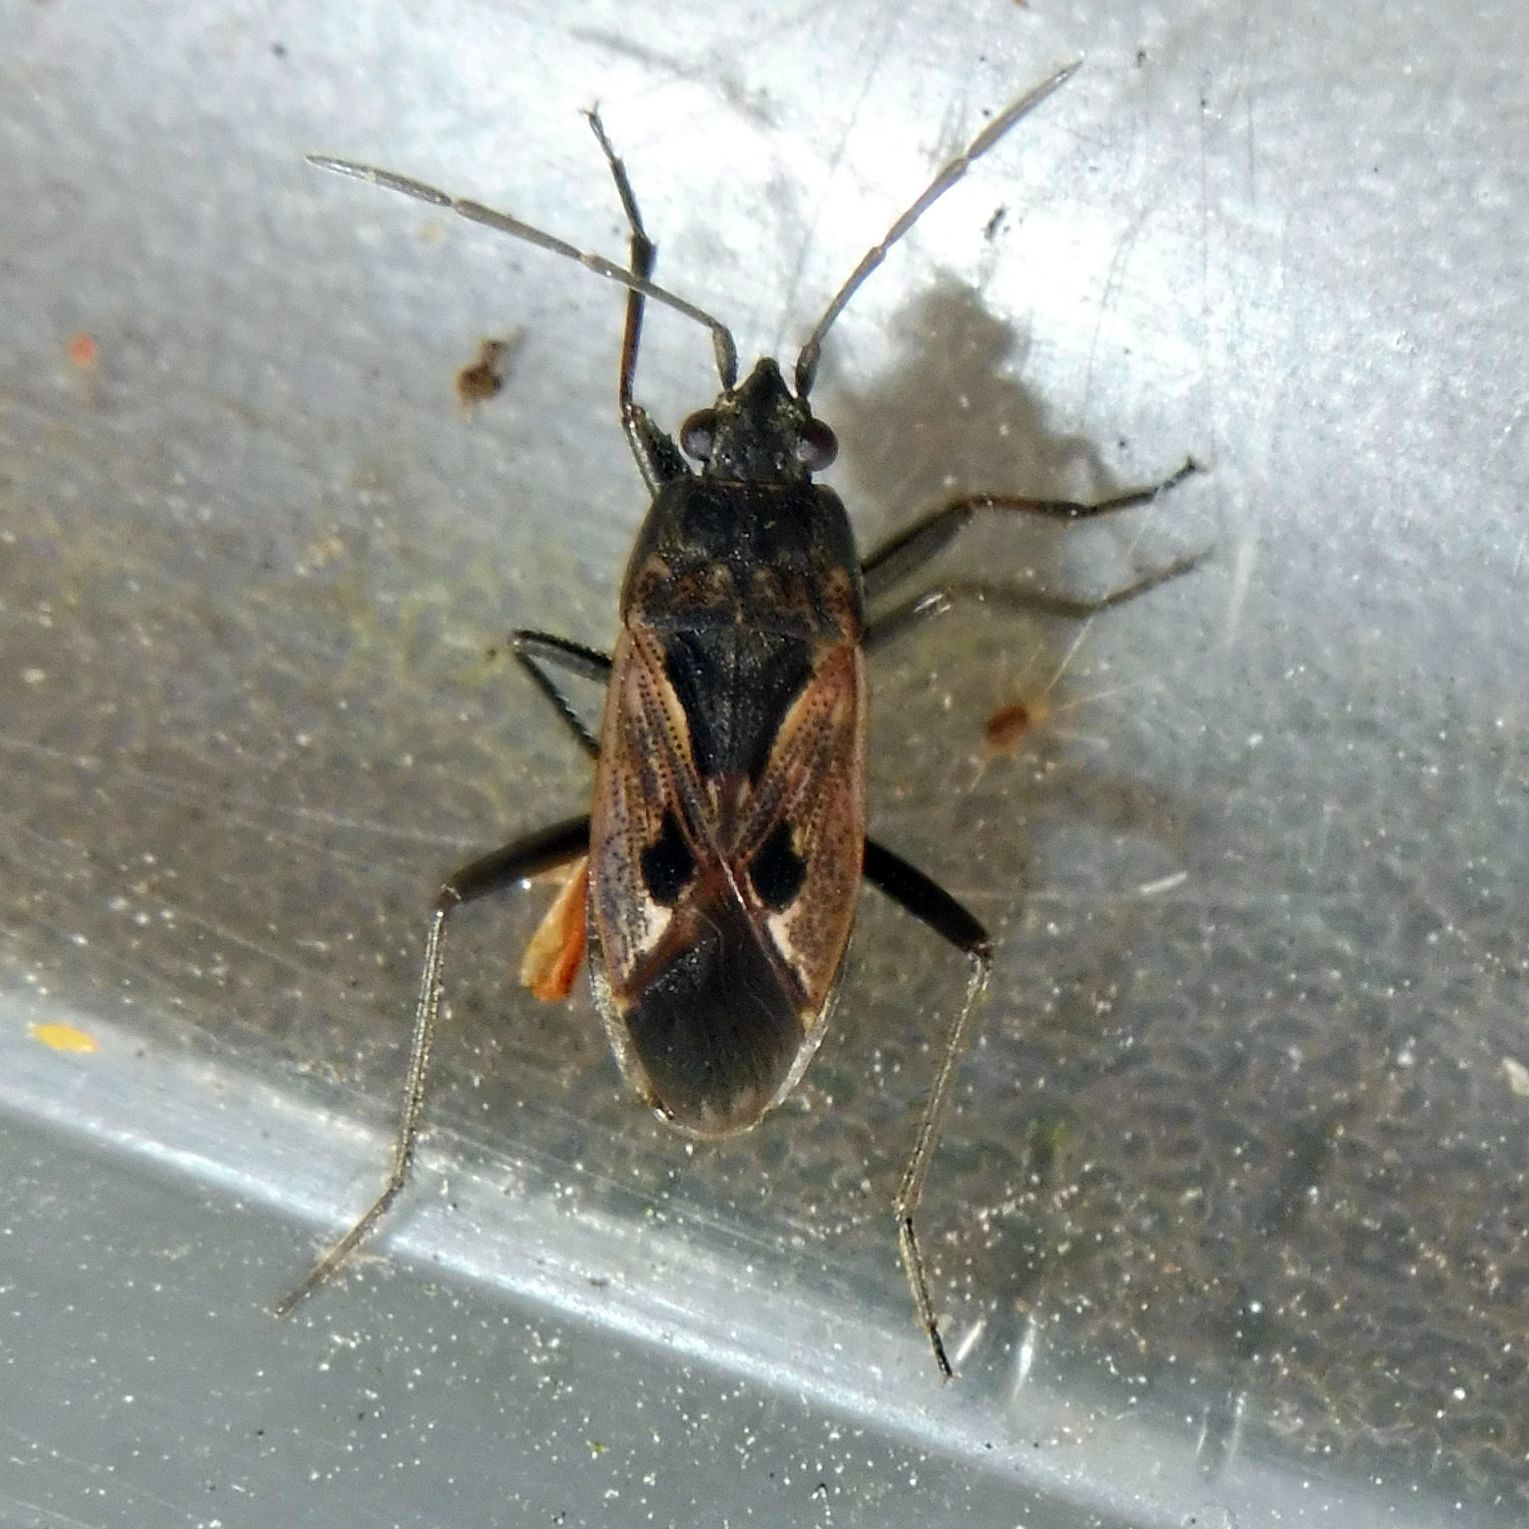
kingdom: Animalia
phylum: Arthropoda
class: Insecta
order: Hemiptera
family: Rhyparochromidae
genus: Rhyparochromus
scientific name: Rhyparochromus pini
